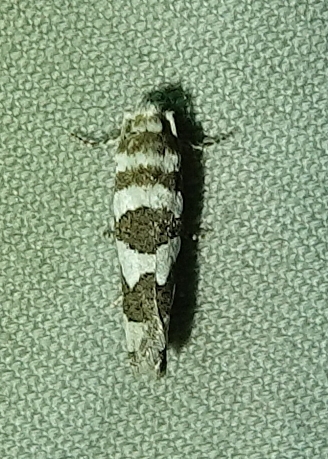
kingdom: Animalia
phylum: Arthropoda
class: Insecta
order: Lepidoptera
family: Tortricidae
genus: Pelochrista
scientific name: Pelochrista robinsonana
